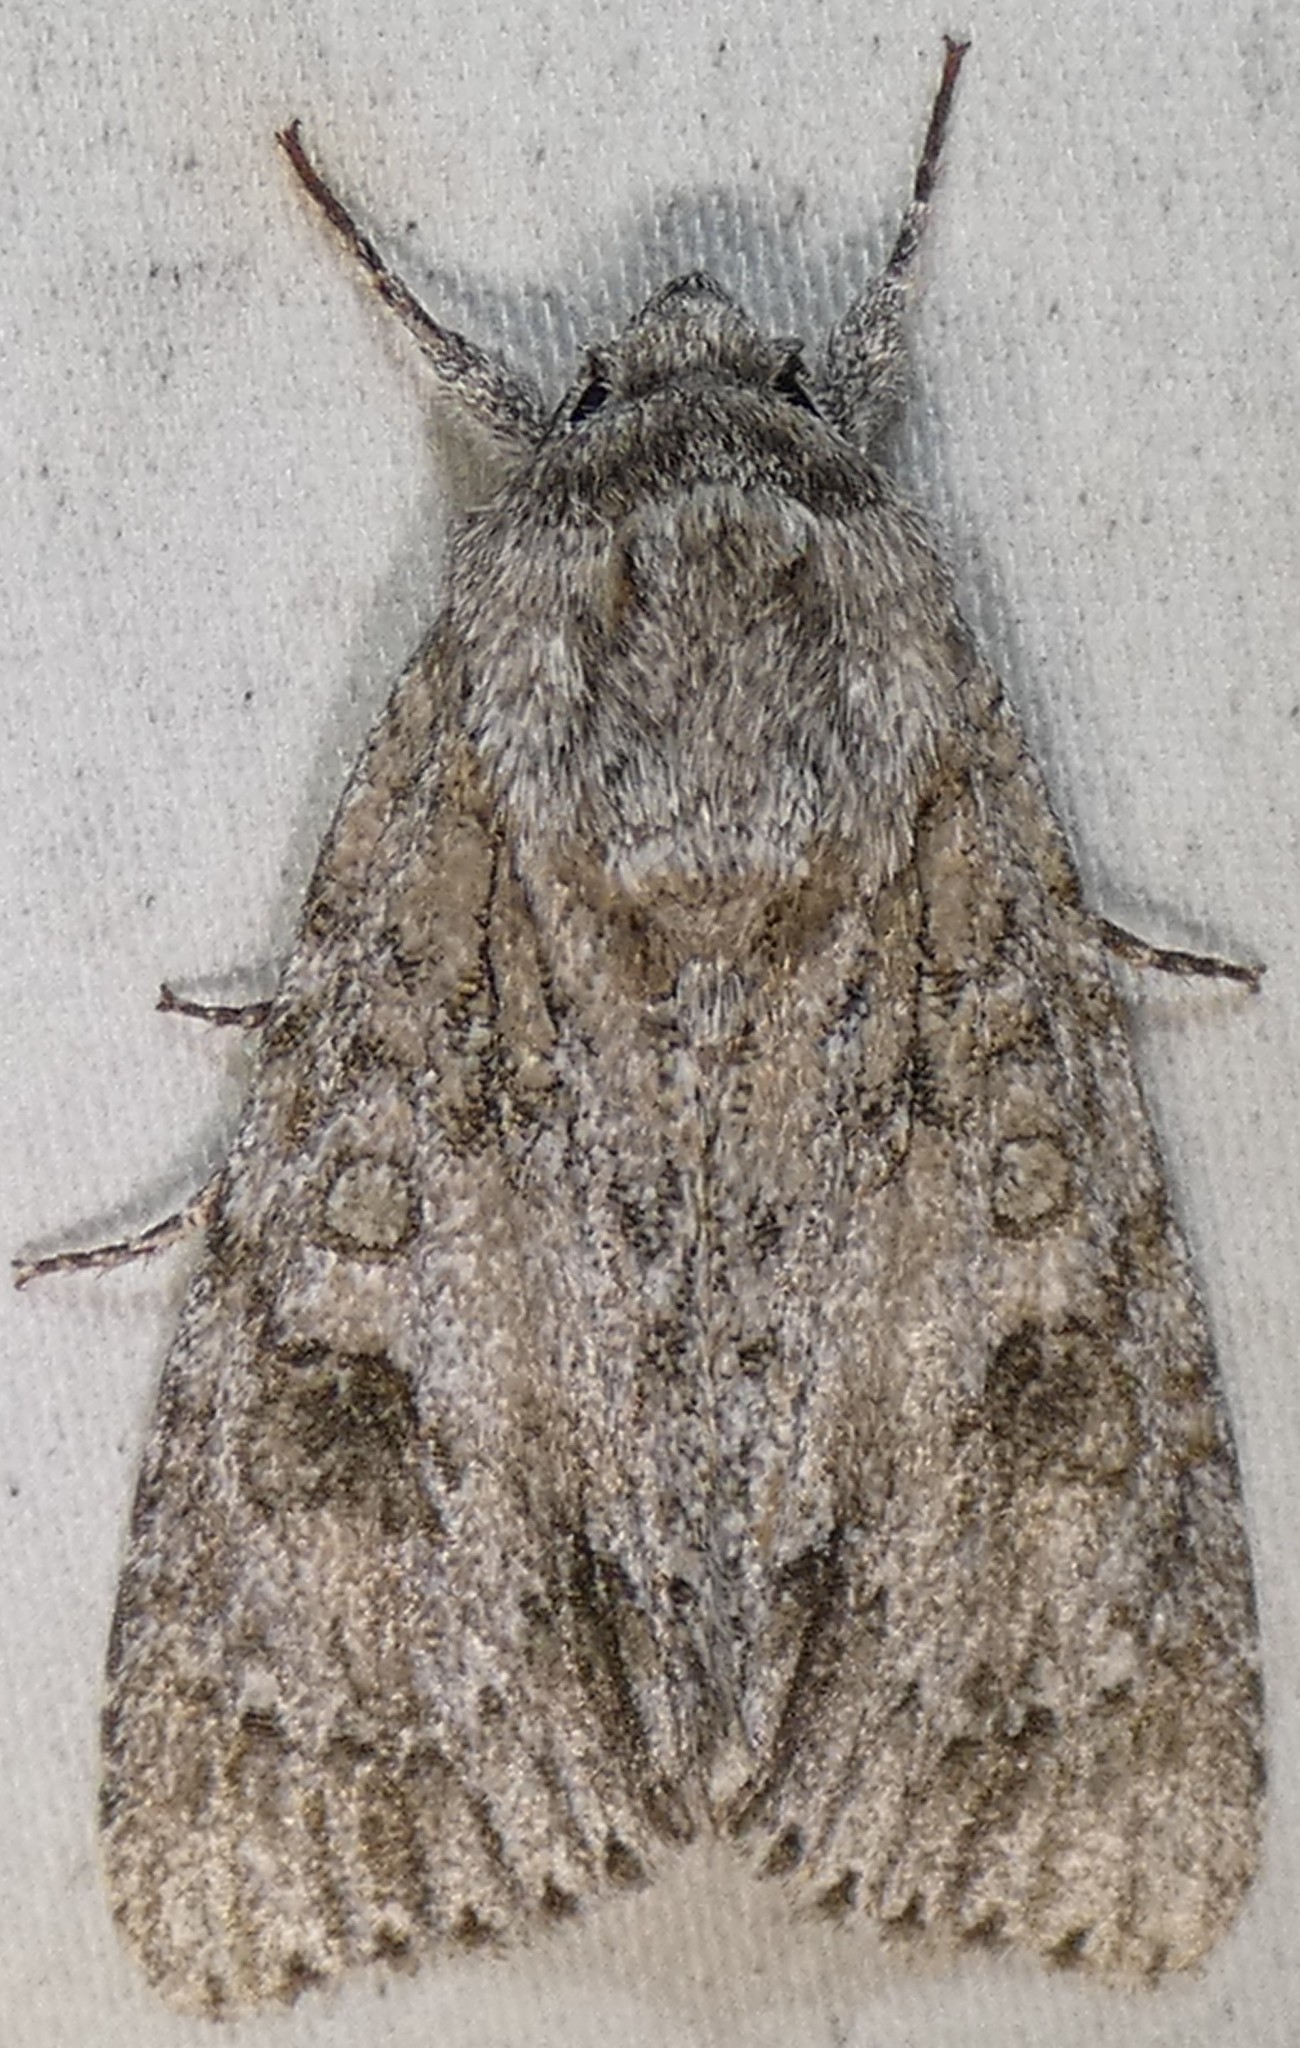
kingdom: Animalia
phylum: Arthropoda
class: Insecta
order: Lepidoptera
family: Noctuidae
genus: Acronicta
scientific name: Acronicta rubricoma
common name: Hackberry dagger
